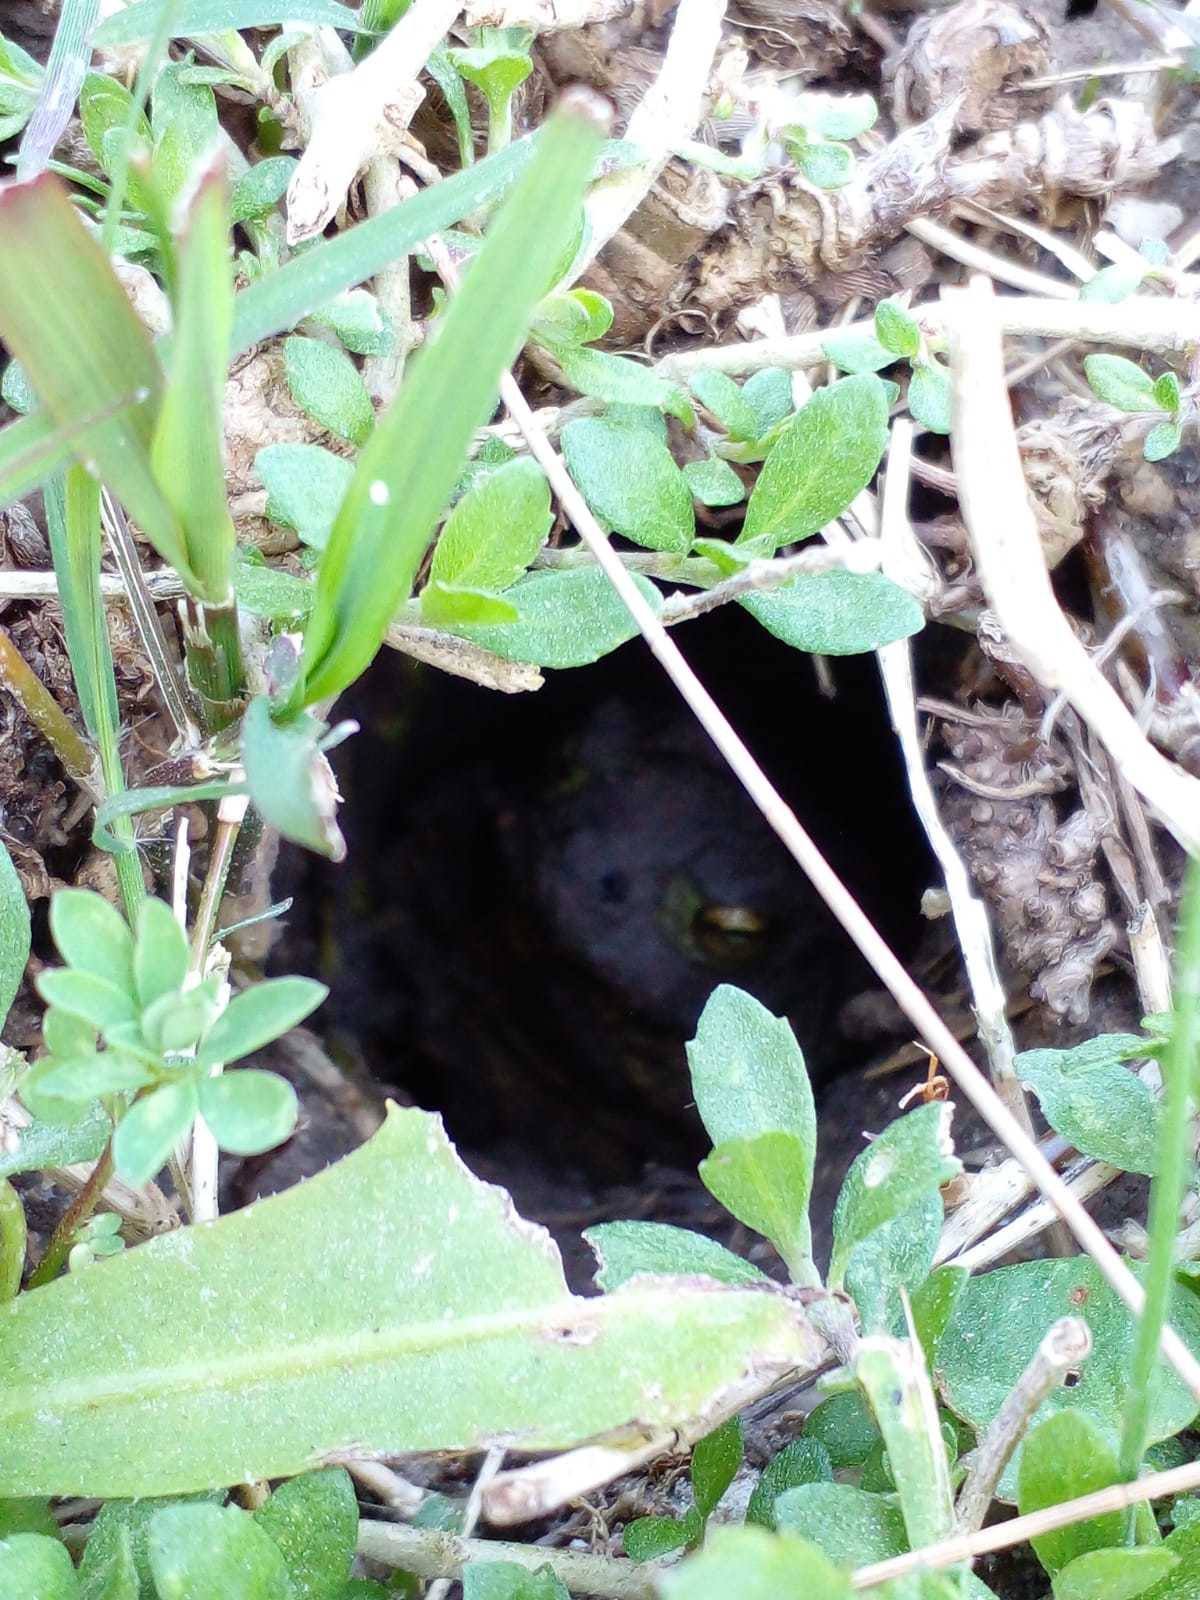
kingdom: Animalia
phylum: Chordata
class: Amphibia
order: Anura
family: Bufonidae
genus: Rhinella
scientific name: Rhinella dorbignyi
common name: D´orbigny’s toad
